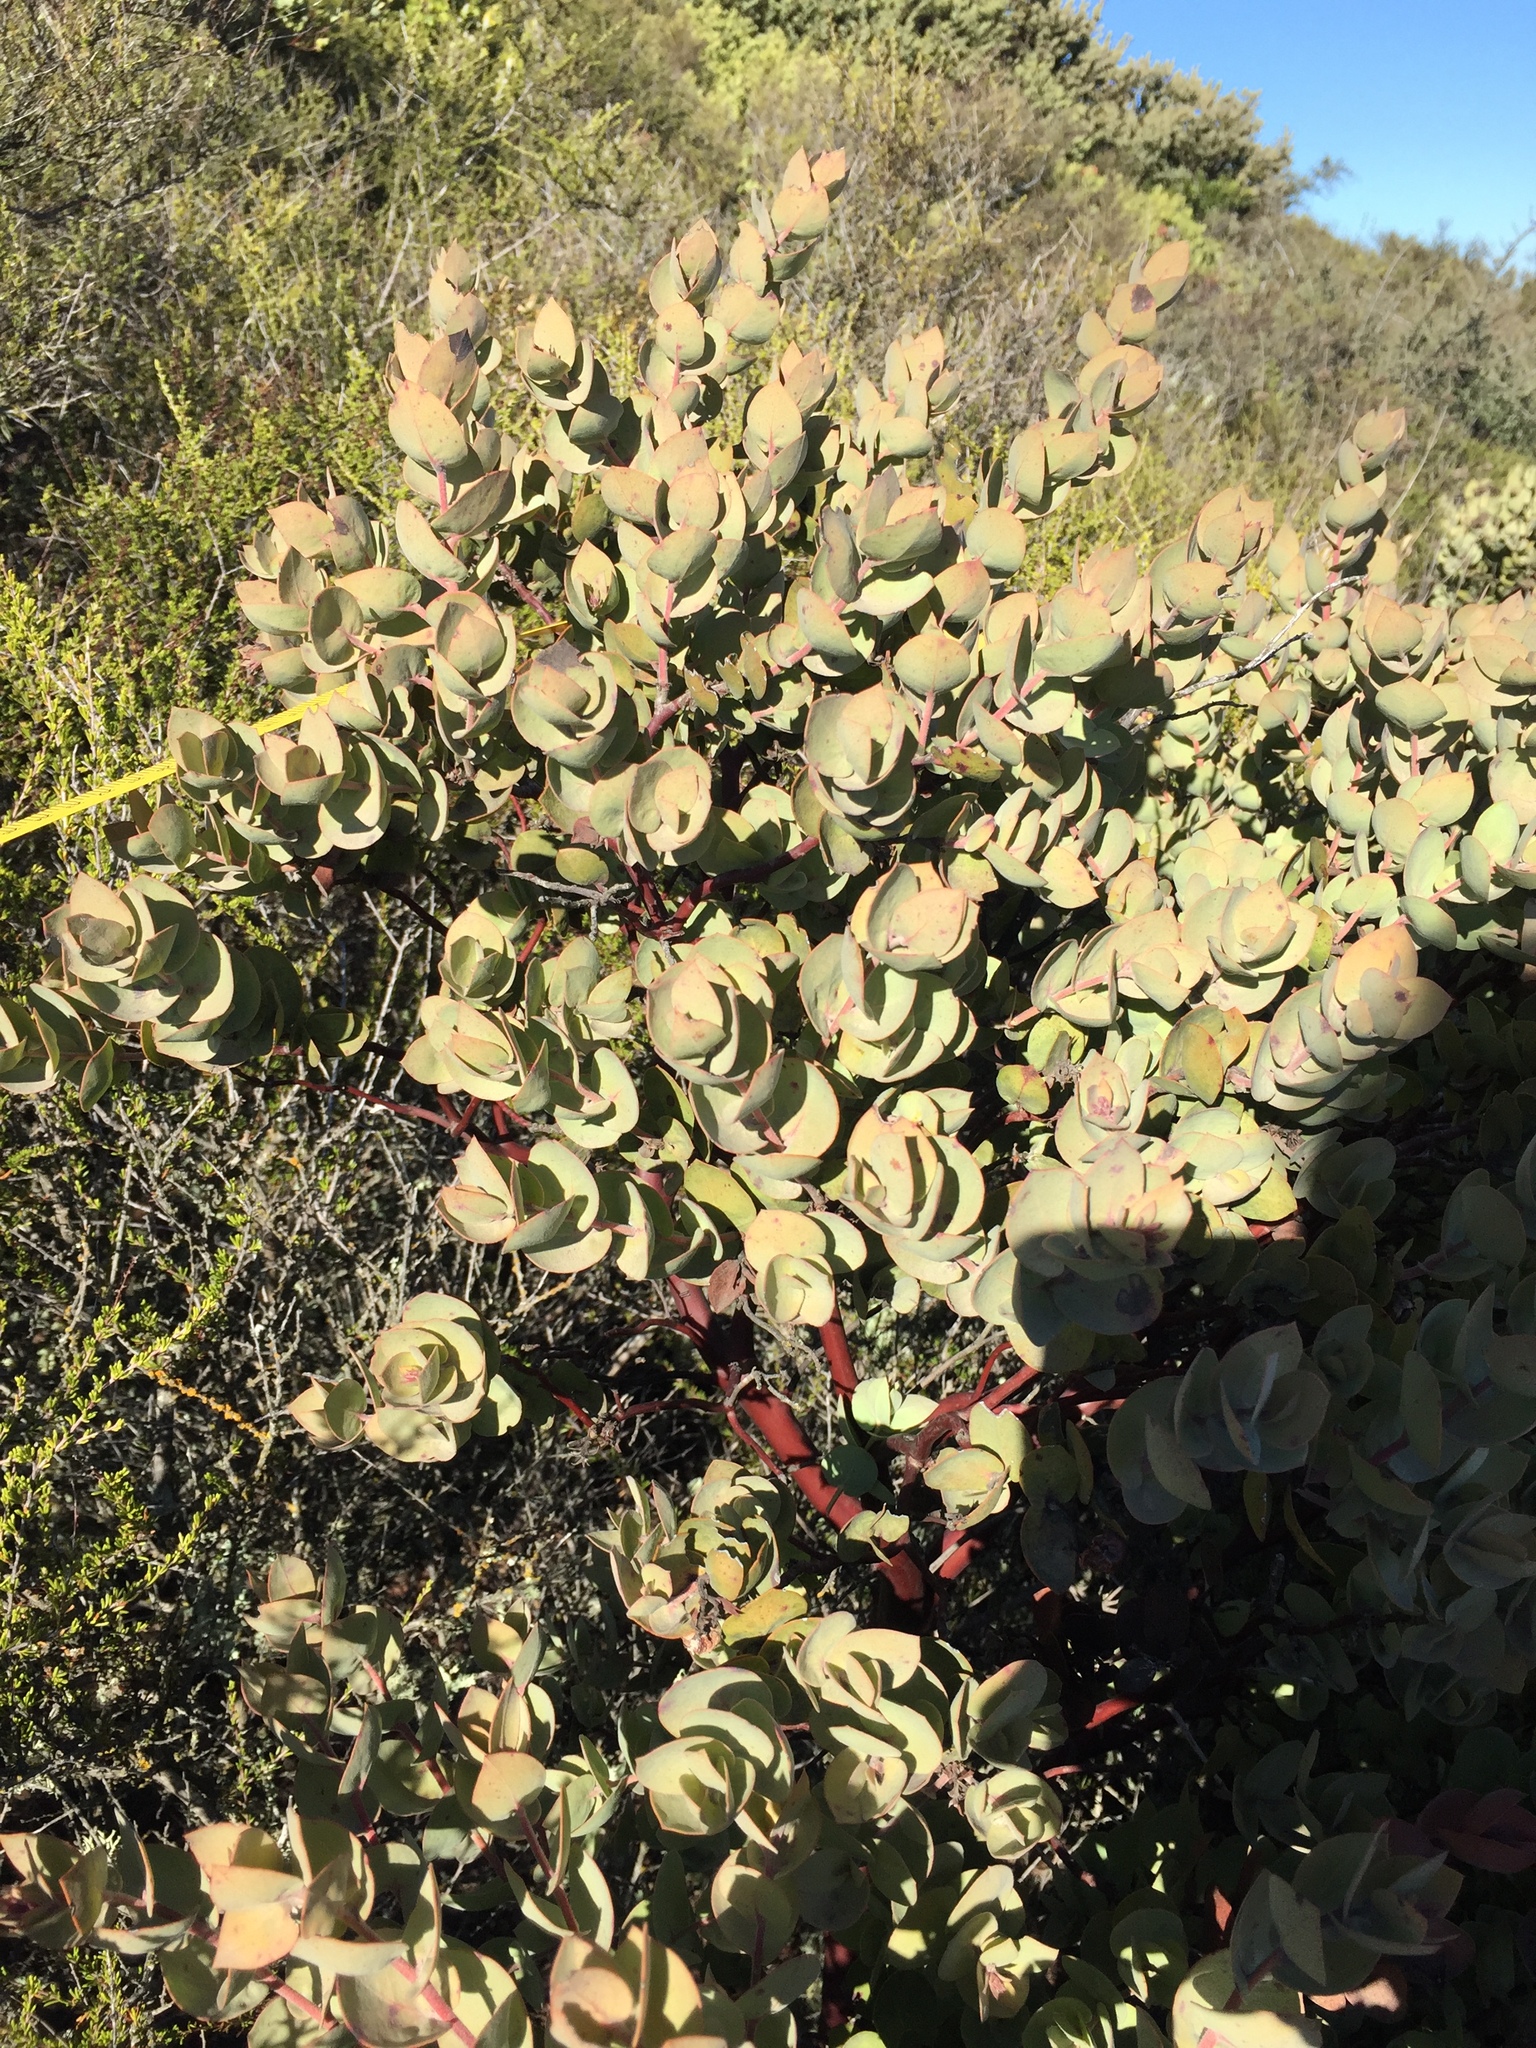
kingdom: Plantae
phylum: Tracheophyta
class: Magnoliopsida
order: Ericales
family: Ericaceae
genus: Arctostaphylos
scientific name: Arctostaphylos luciana
